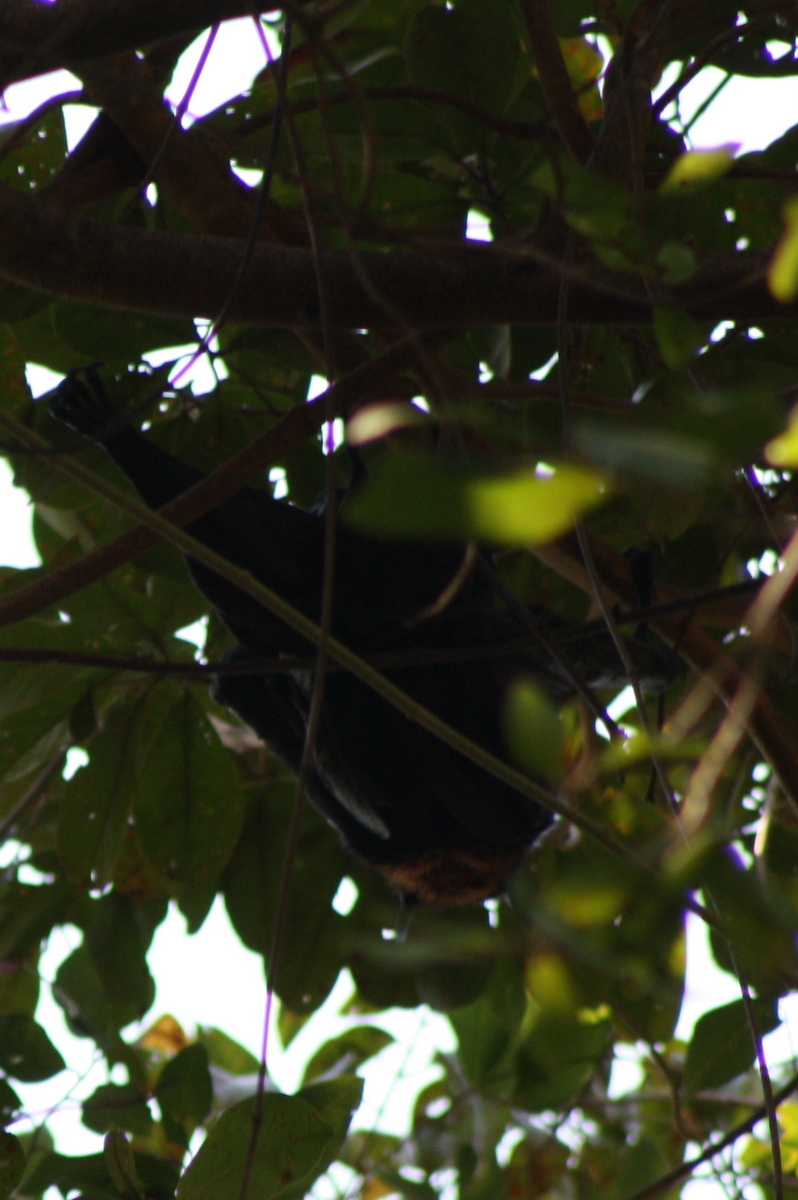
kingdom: Animalia
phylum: Chordata
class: Mammalia
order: Chiroptera
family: Pteropodidae
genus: Pteropus
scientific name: Pteropus alecto
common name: Black flying fox
